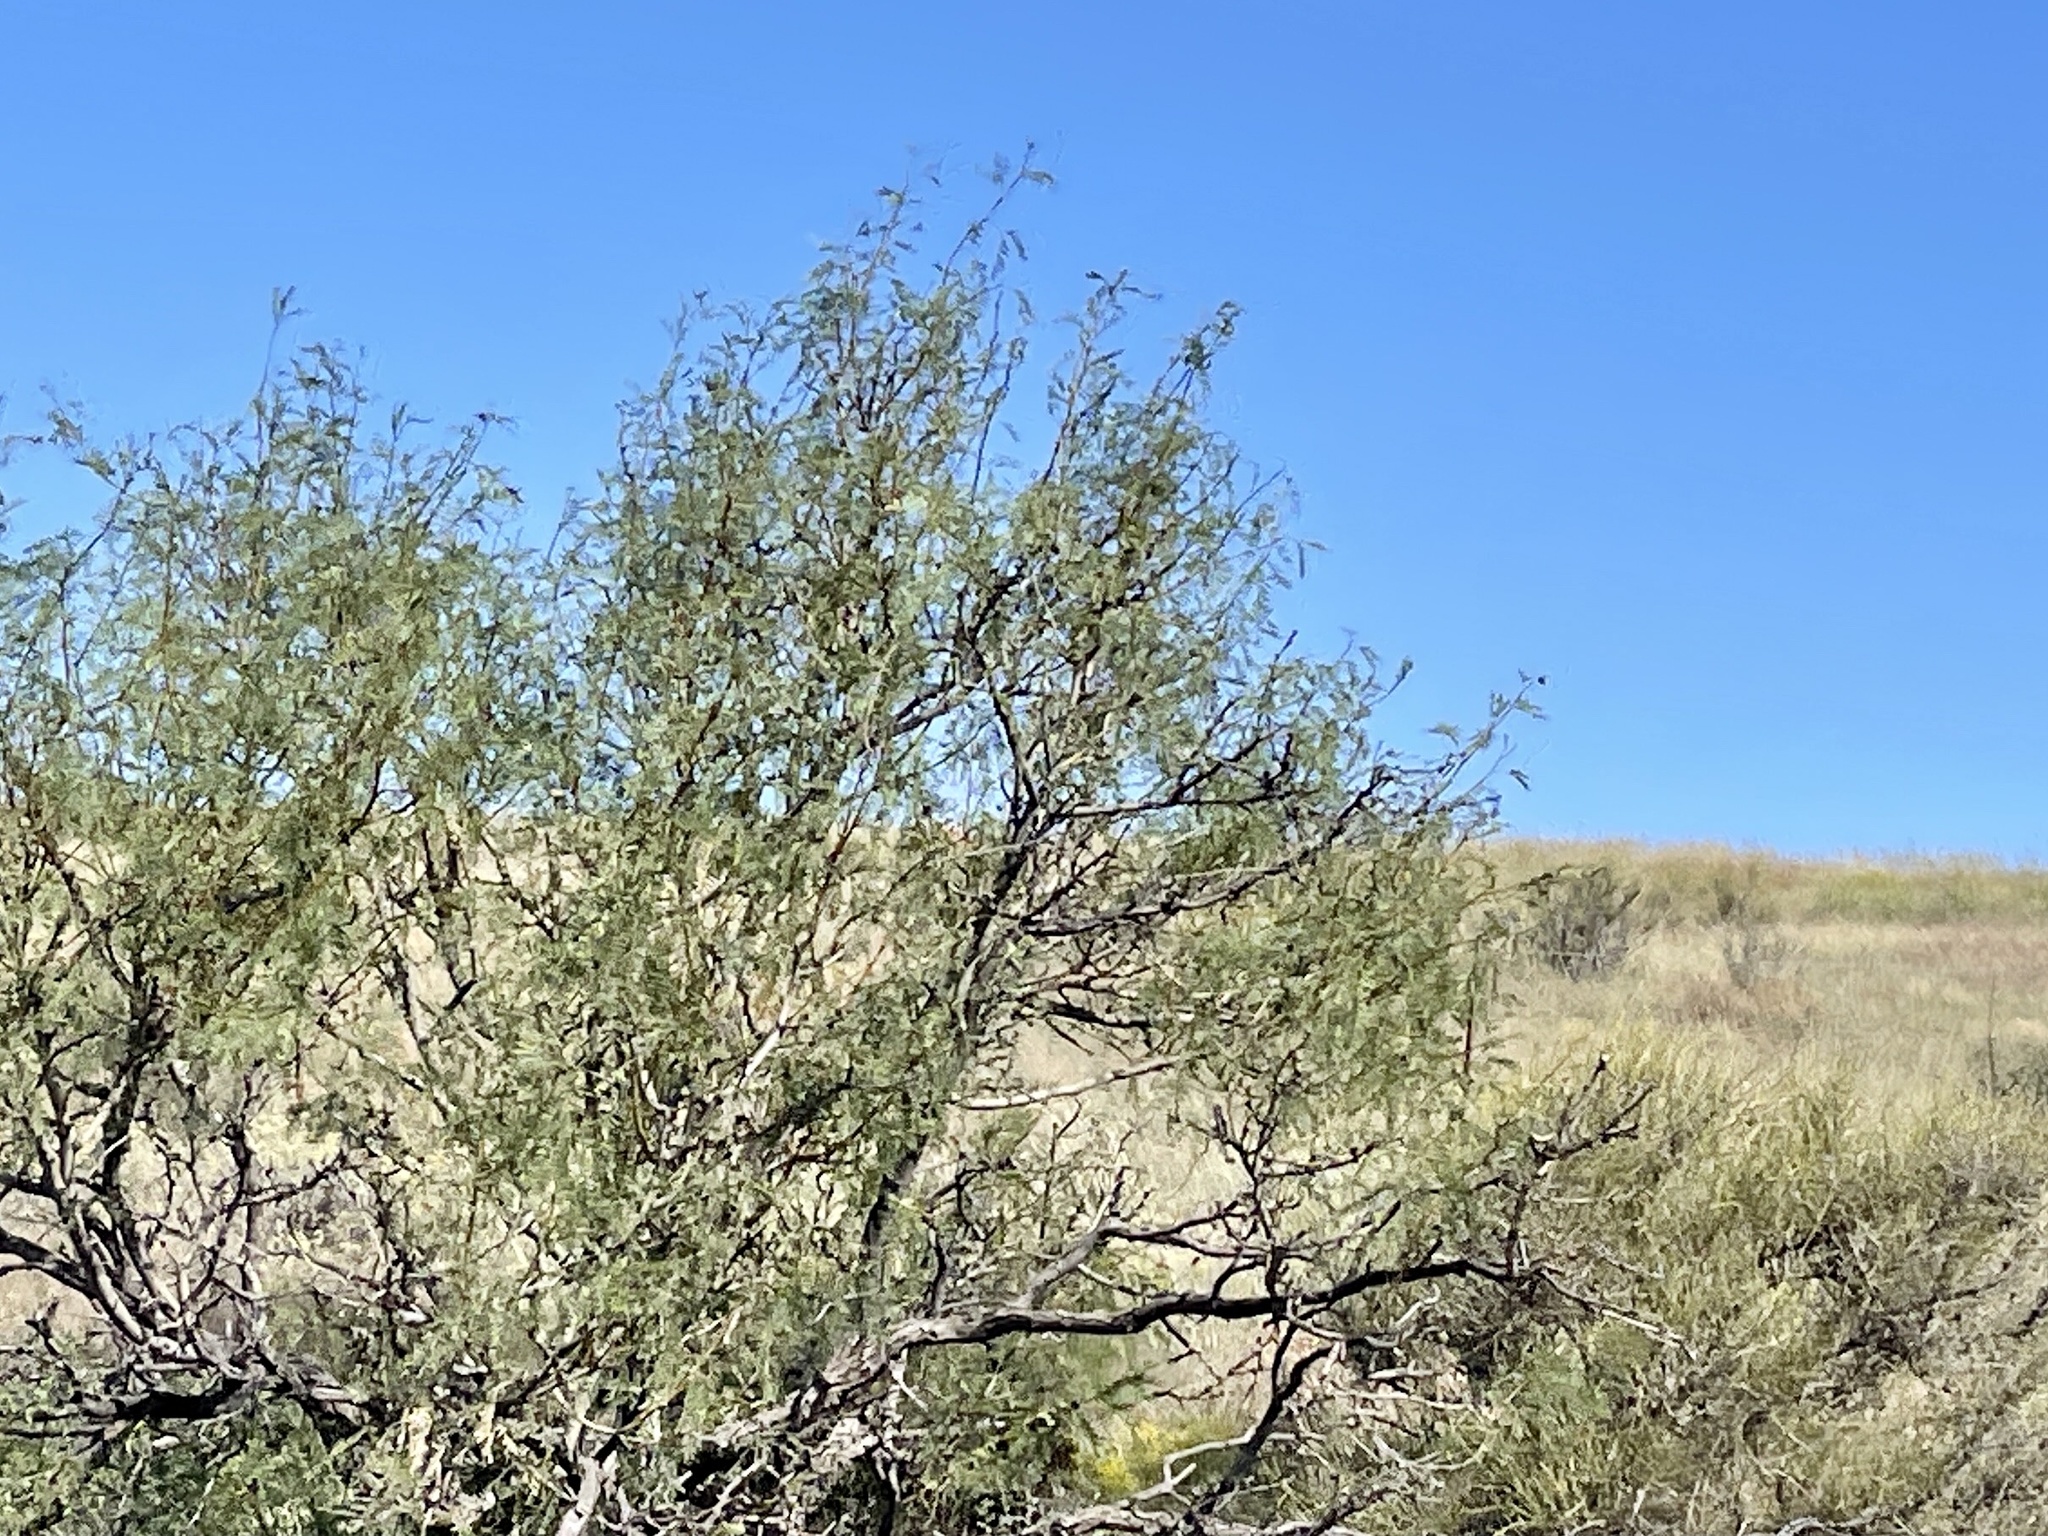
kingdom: Plantae
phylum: Tracheophyta
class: Magnoliopsida
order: Fabales
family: Fabaceae
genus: Prosopis
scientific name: Prosopis glandulosa
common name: Honey mesquite
